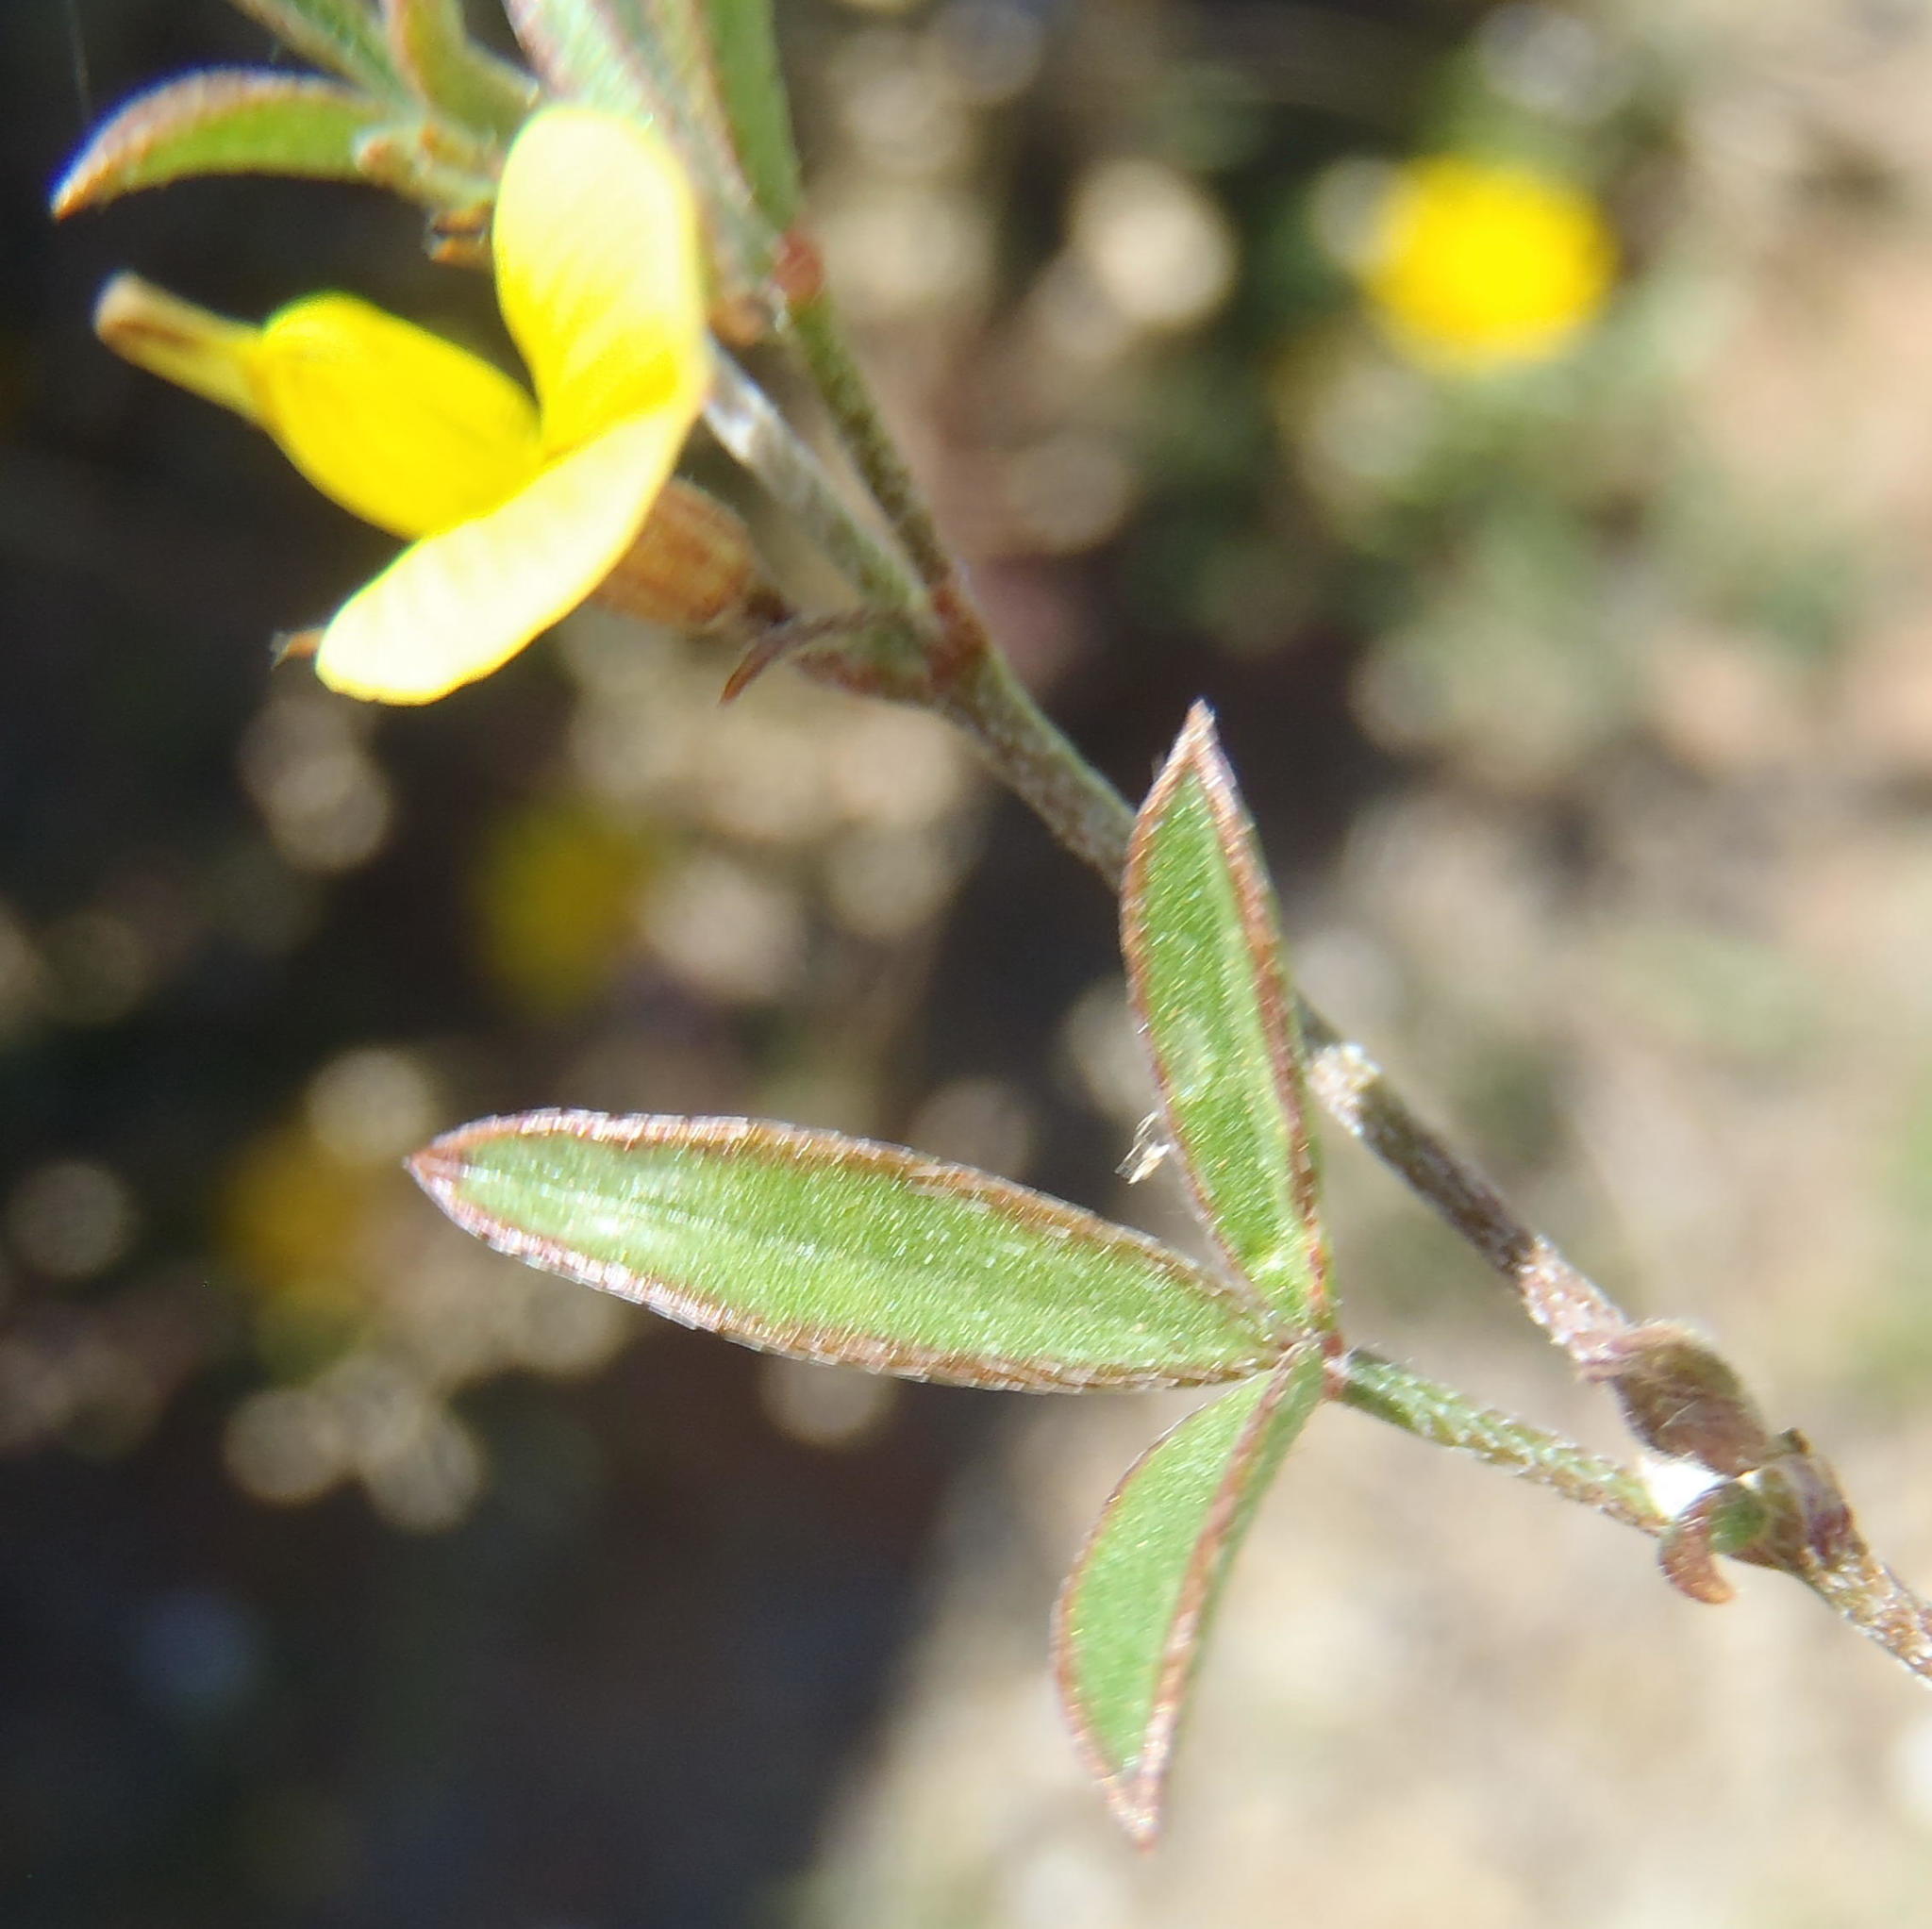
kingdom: Plantae
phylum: Tracheophyta
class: Magnoliopsida
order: Fabales
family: Fabaceae
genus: Lotononis
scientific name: Lotononis tenella
